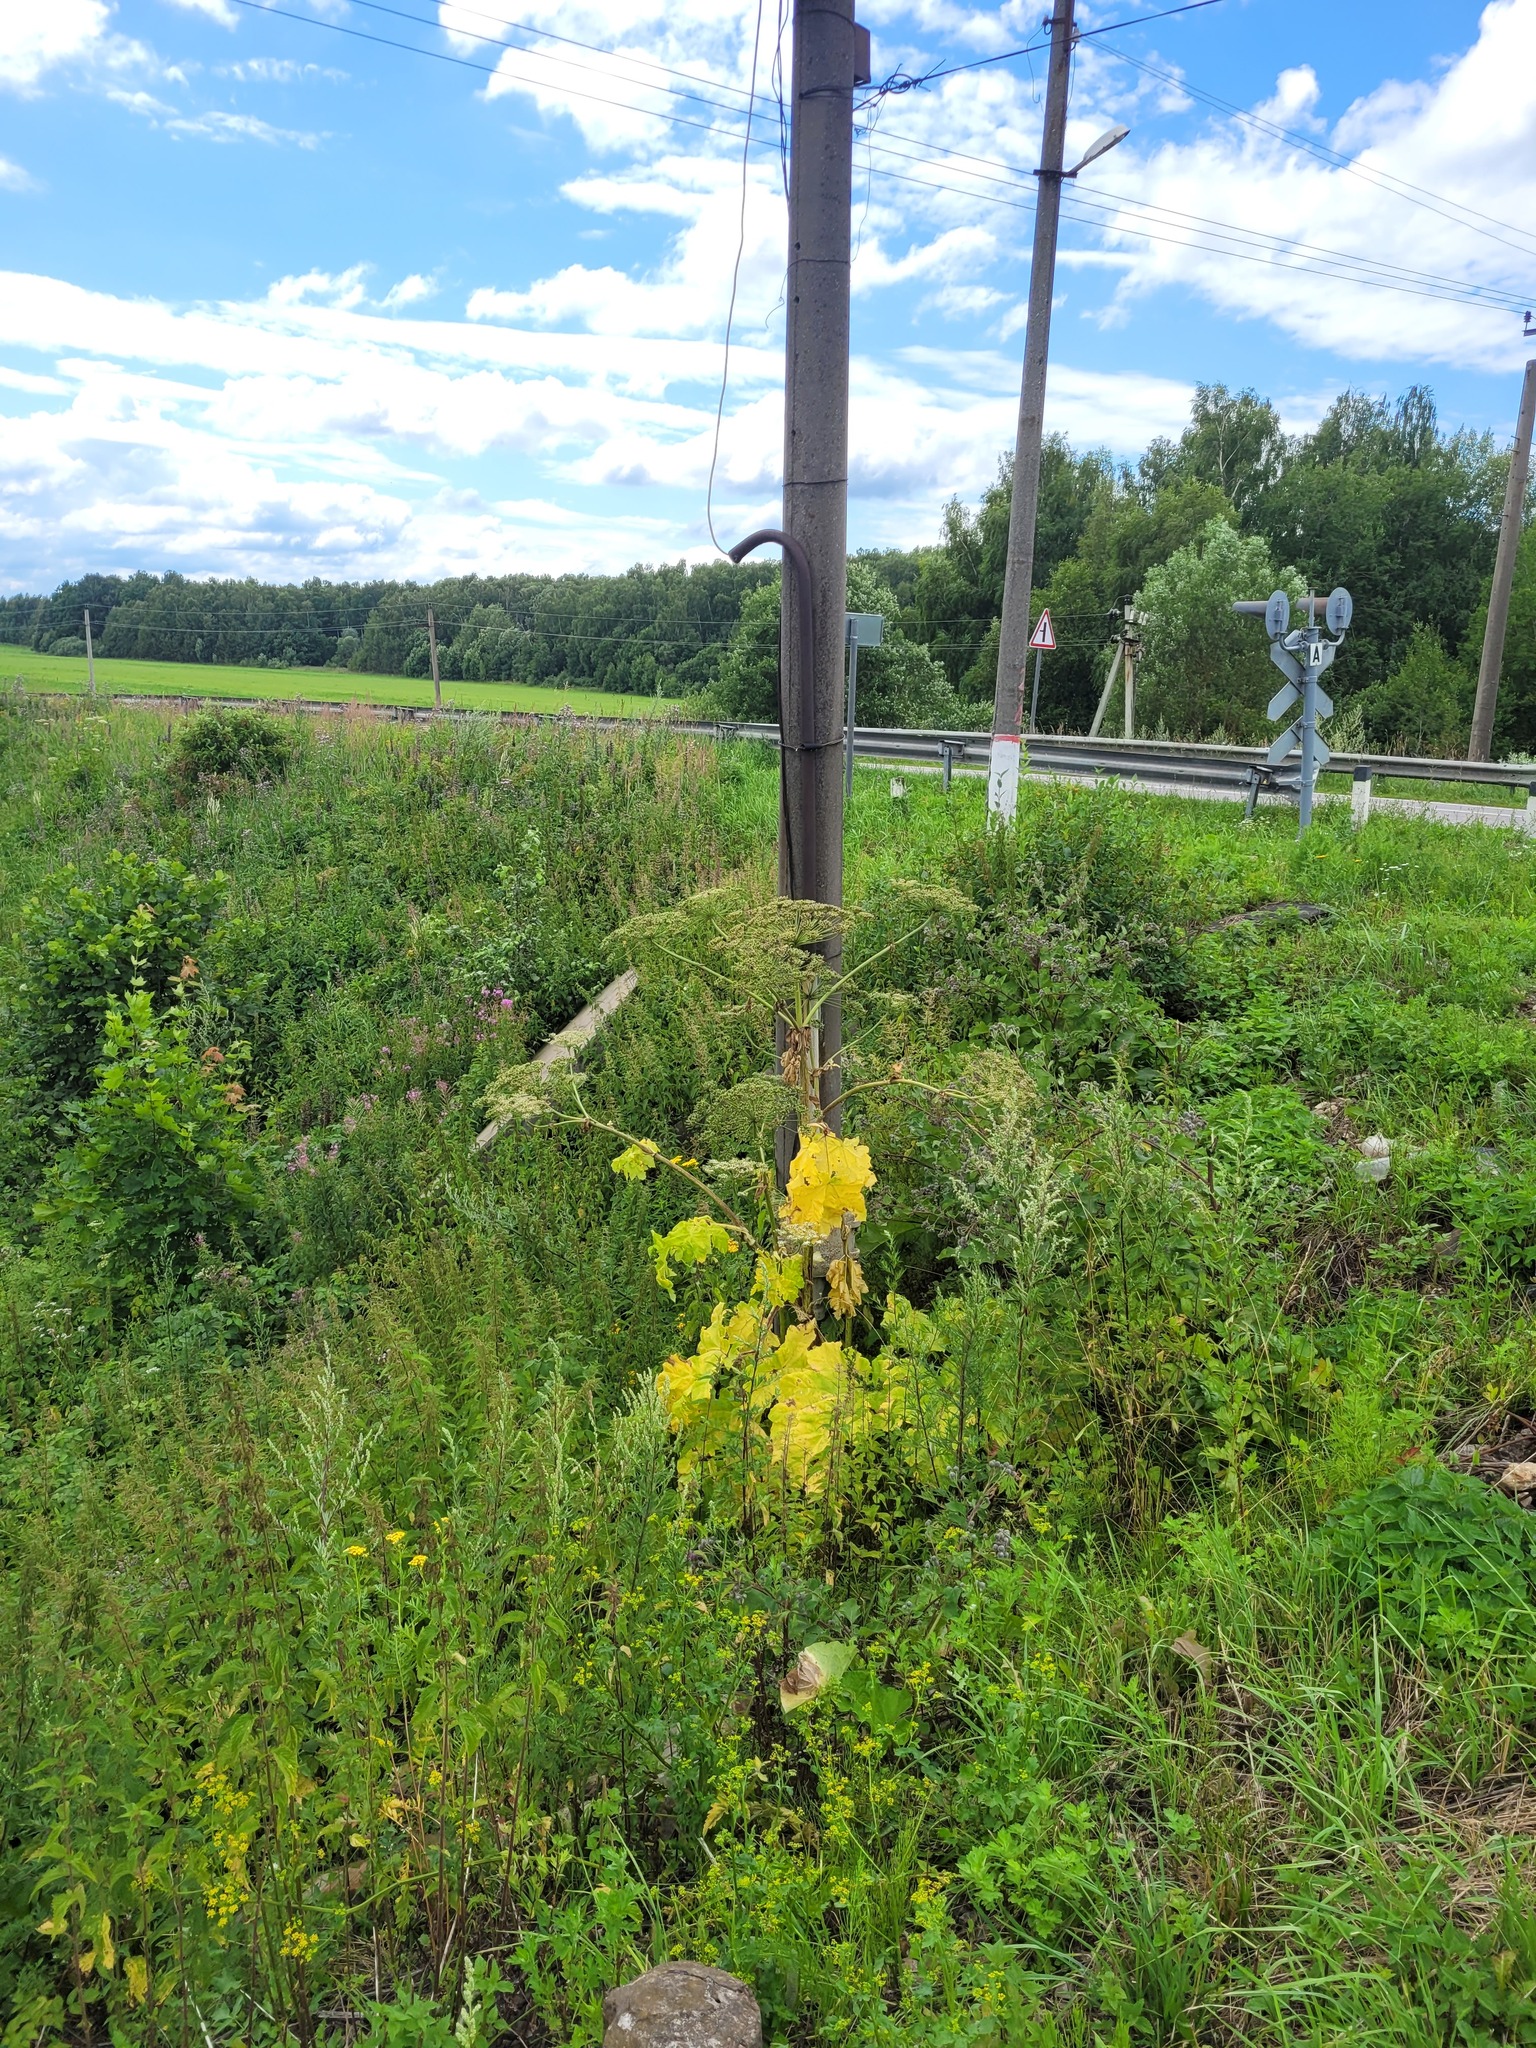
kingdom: Plantae
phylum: Tracheophyta
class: Magnoliopsida
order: Apiales
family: Apiaceae
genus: Heracleum
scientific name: Heracleum sosnowskyi
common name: Sosnowsky's hogweed
